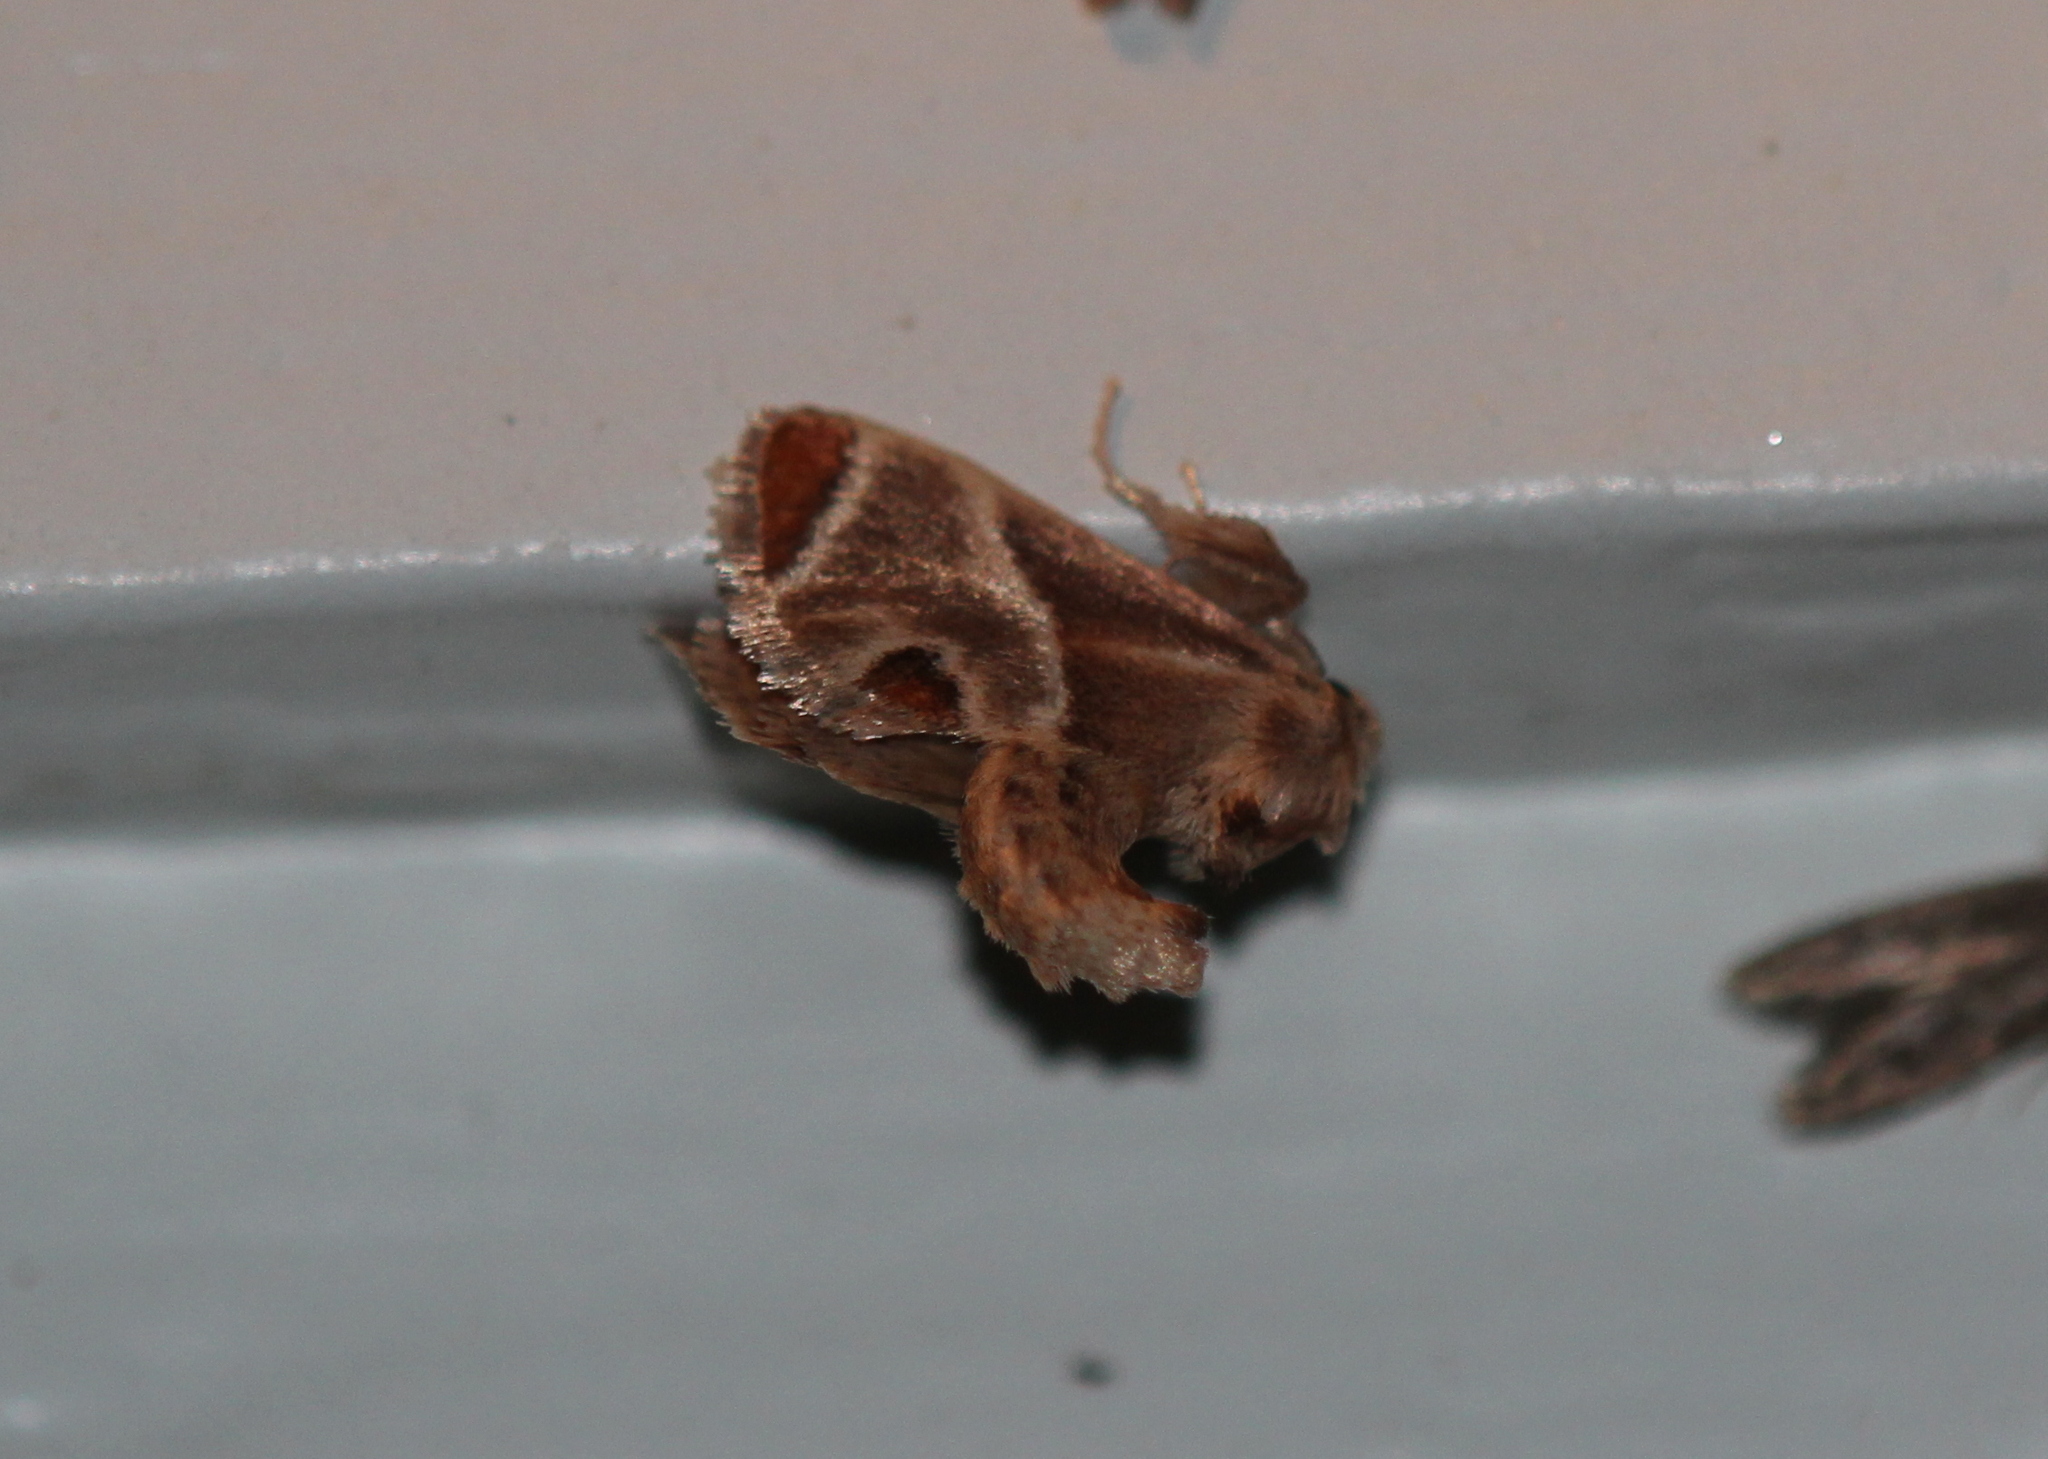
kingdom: Animalia
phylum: Arthropoda
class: Insecta
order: Lepidoptera
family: Limacodidae
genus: Apoda
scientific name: Apoda biguttata
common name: Shagreened slug moth
